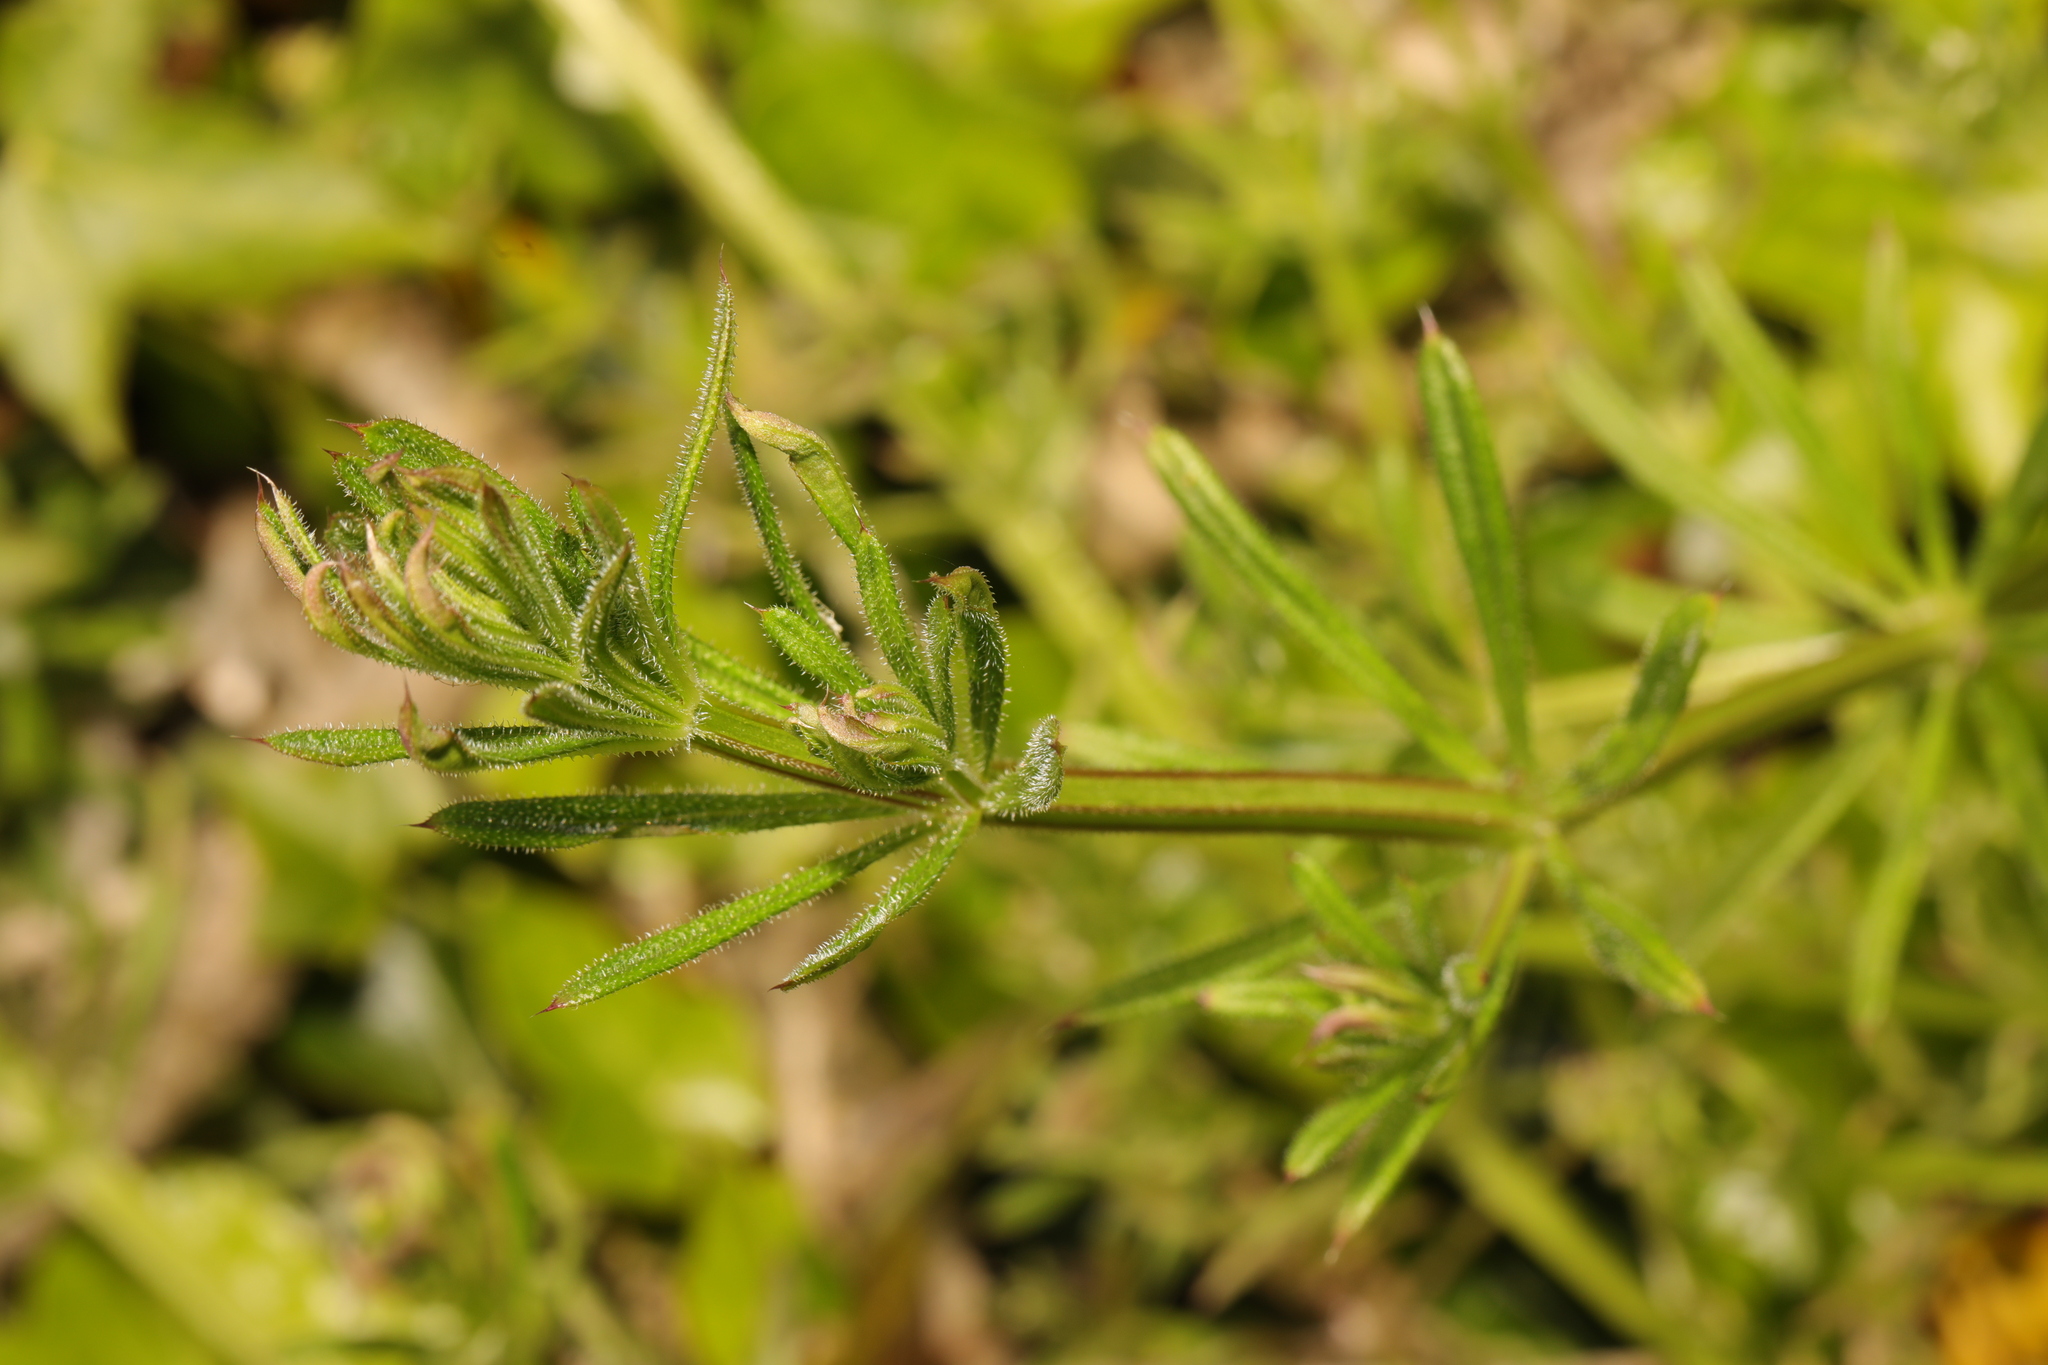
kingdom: Plantae
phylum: Tracheophyta
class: Magnoliopsida
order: Gentianales
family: Rubiaceae
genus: Galium
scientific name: Galium aparine
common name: Cleavers
